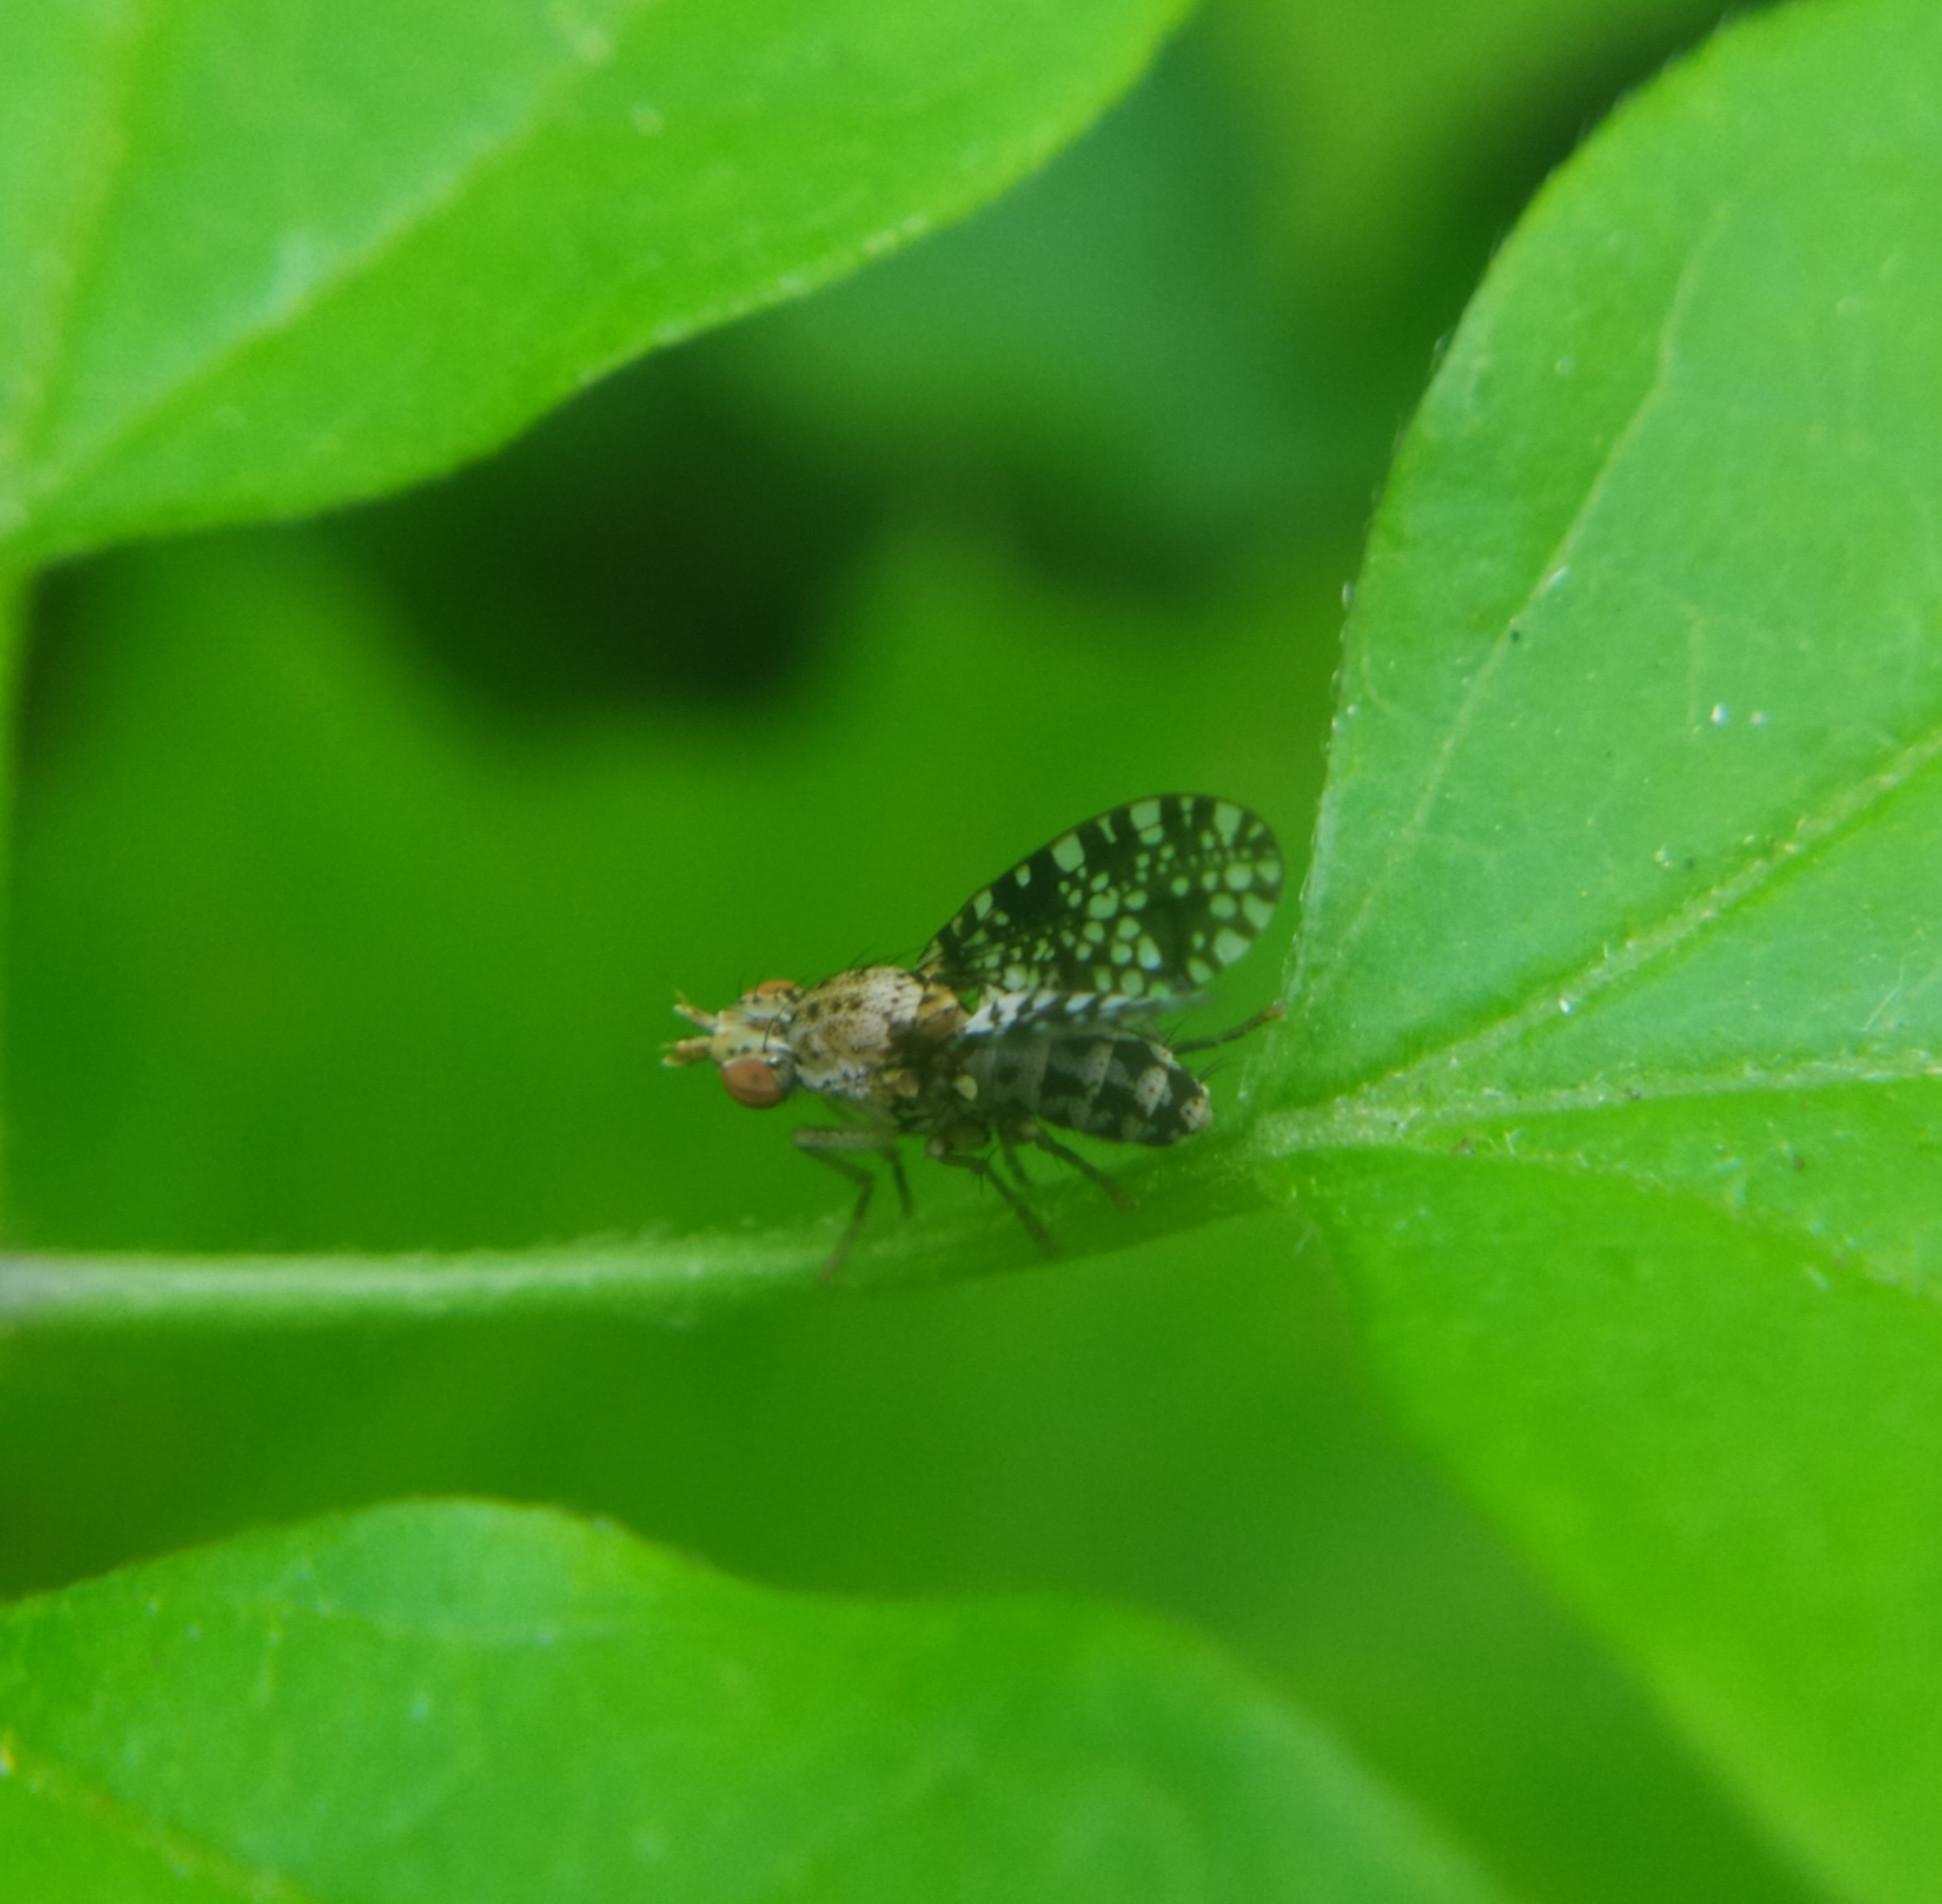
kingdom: Animalia
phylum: Arthropoda
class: Insecta
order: Diptera
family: Sciomyzidae
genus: Trypetoptera
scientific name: Trypetoptera punctulata
